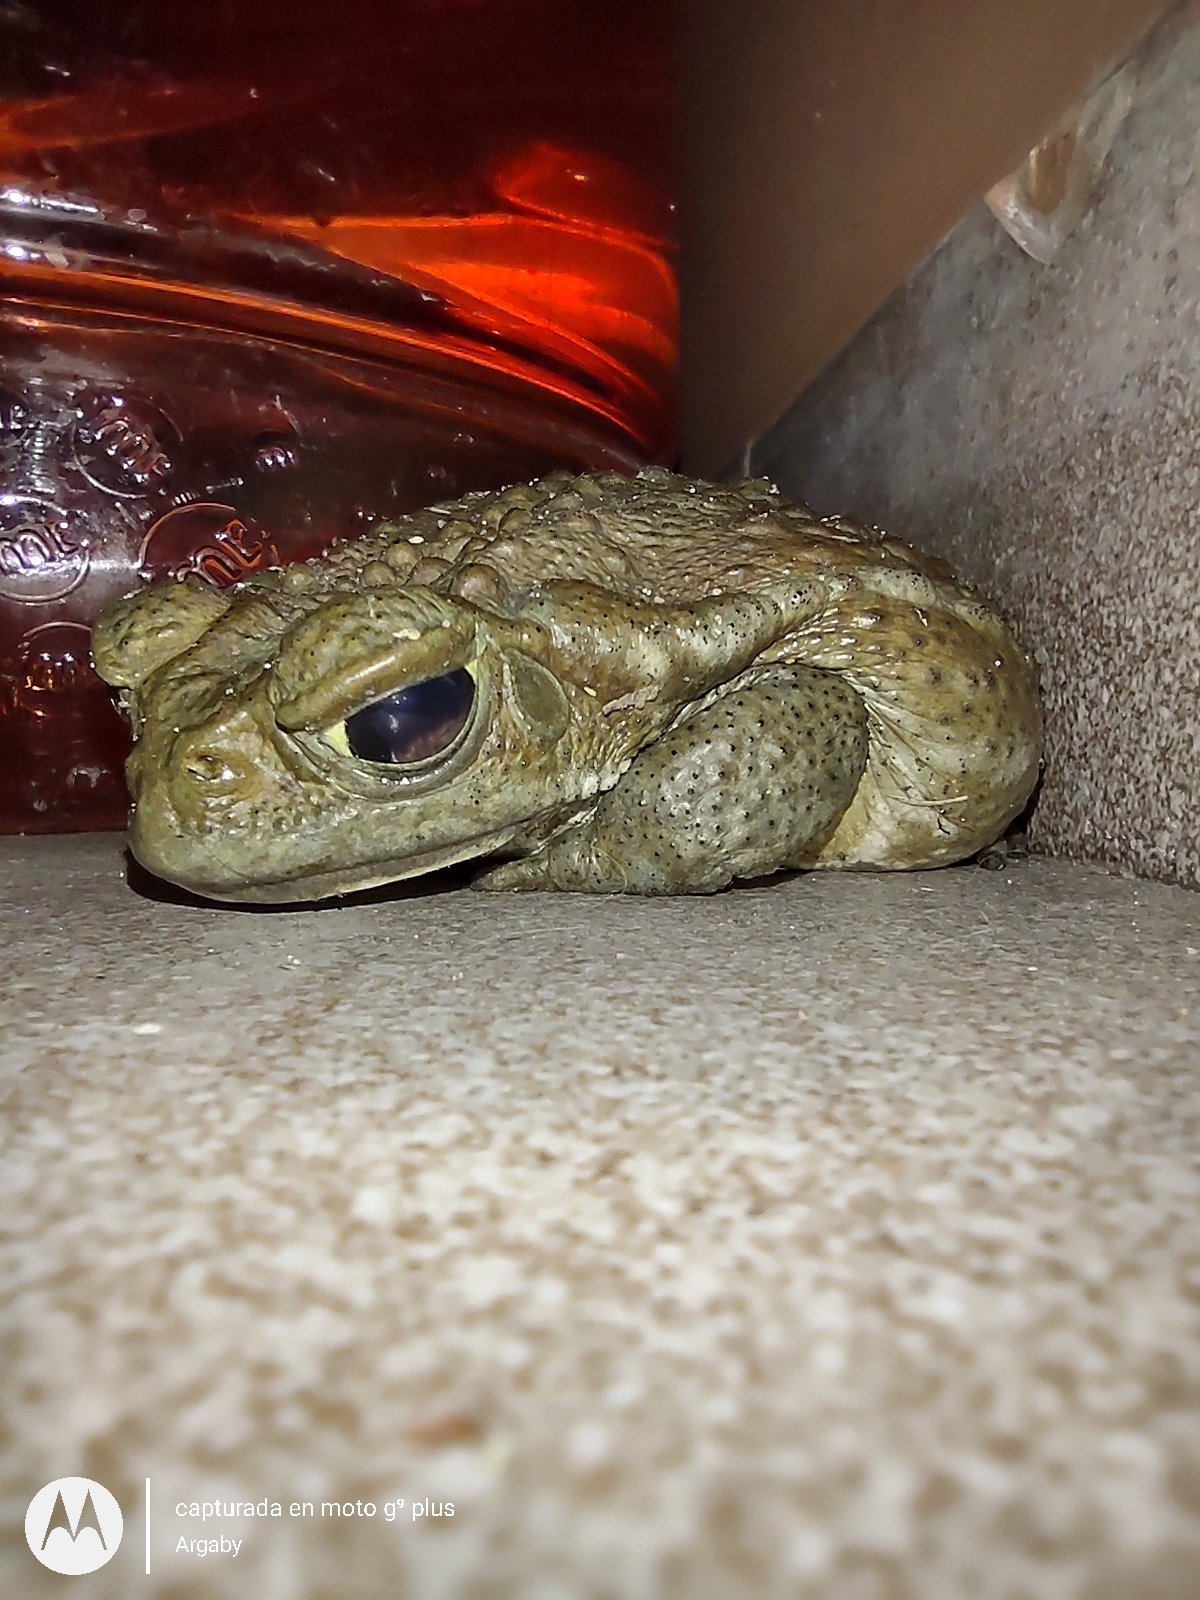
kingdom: Animalia
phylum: Chordata
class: Amphibia
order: Anura
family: Bufonidae
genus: Rhinella
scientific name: Rhinella arenarum
